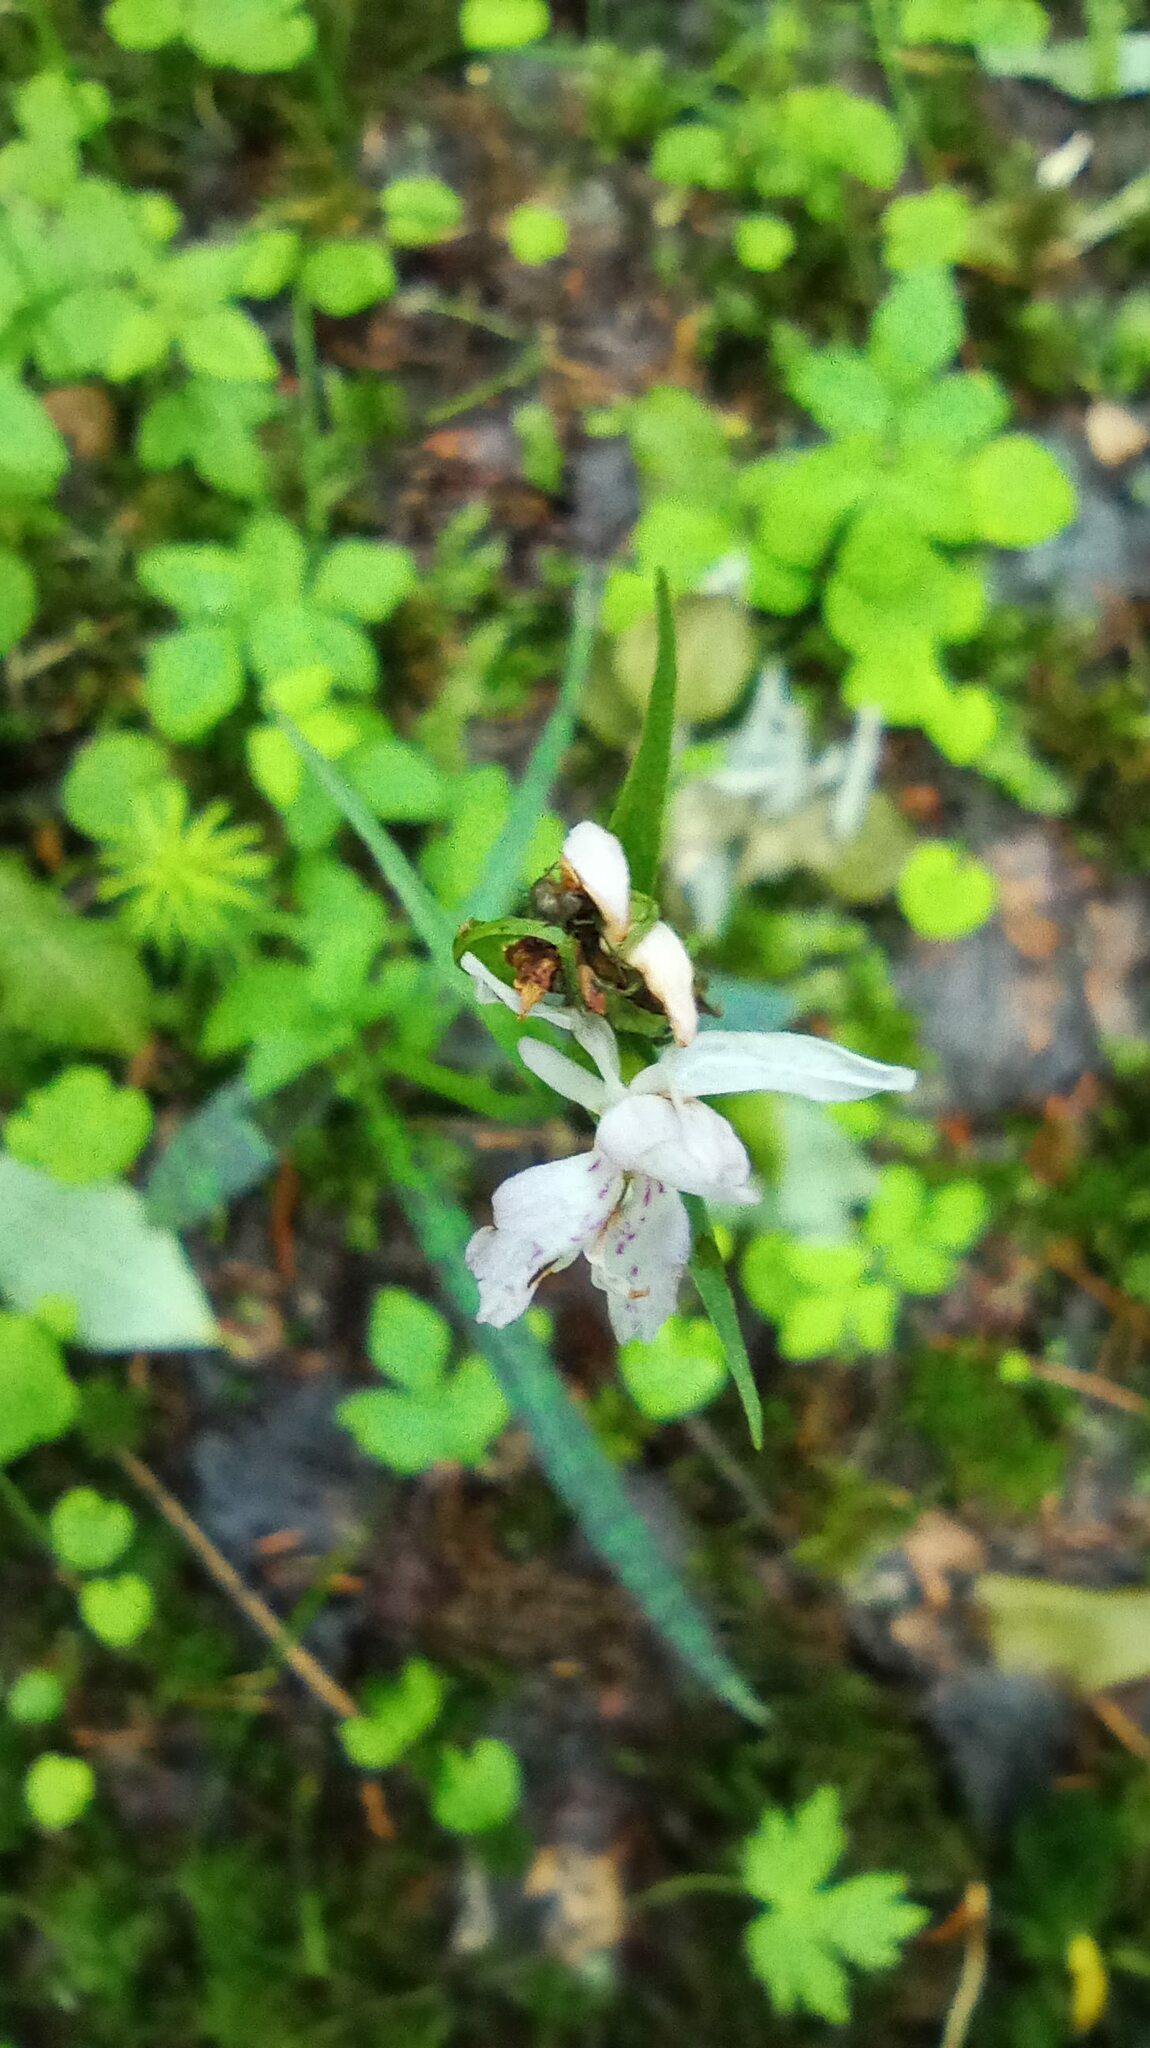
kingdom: Plantae
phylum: Tracheophyta
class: Liliopsida
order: Asparagales
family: Orchidaceae
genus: Dactylorhiza
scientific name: Dactylorhiza maculata
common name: Heath spotted-orchid
